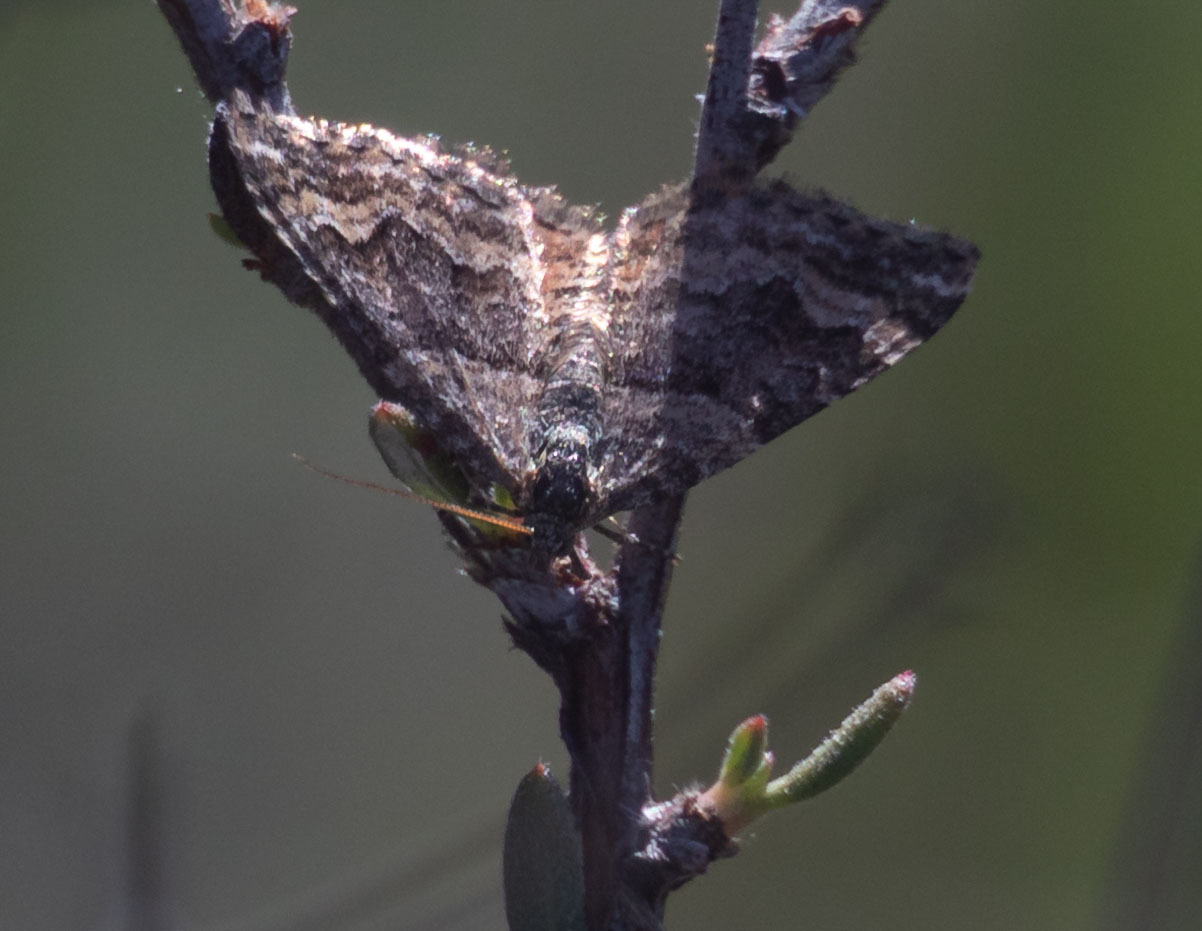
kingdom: Animalia
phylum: Arthropoda
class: Insecta
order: Lepidoptera
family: Geometridae
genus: Epirrhoe
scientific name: Epirrhoe plebeculata
